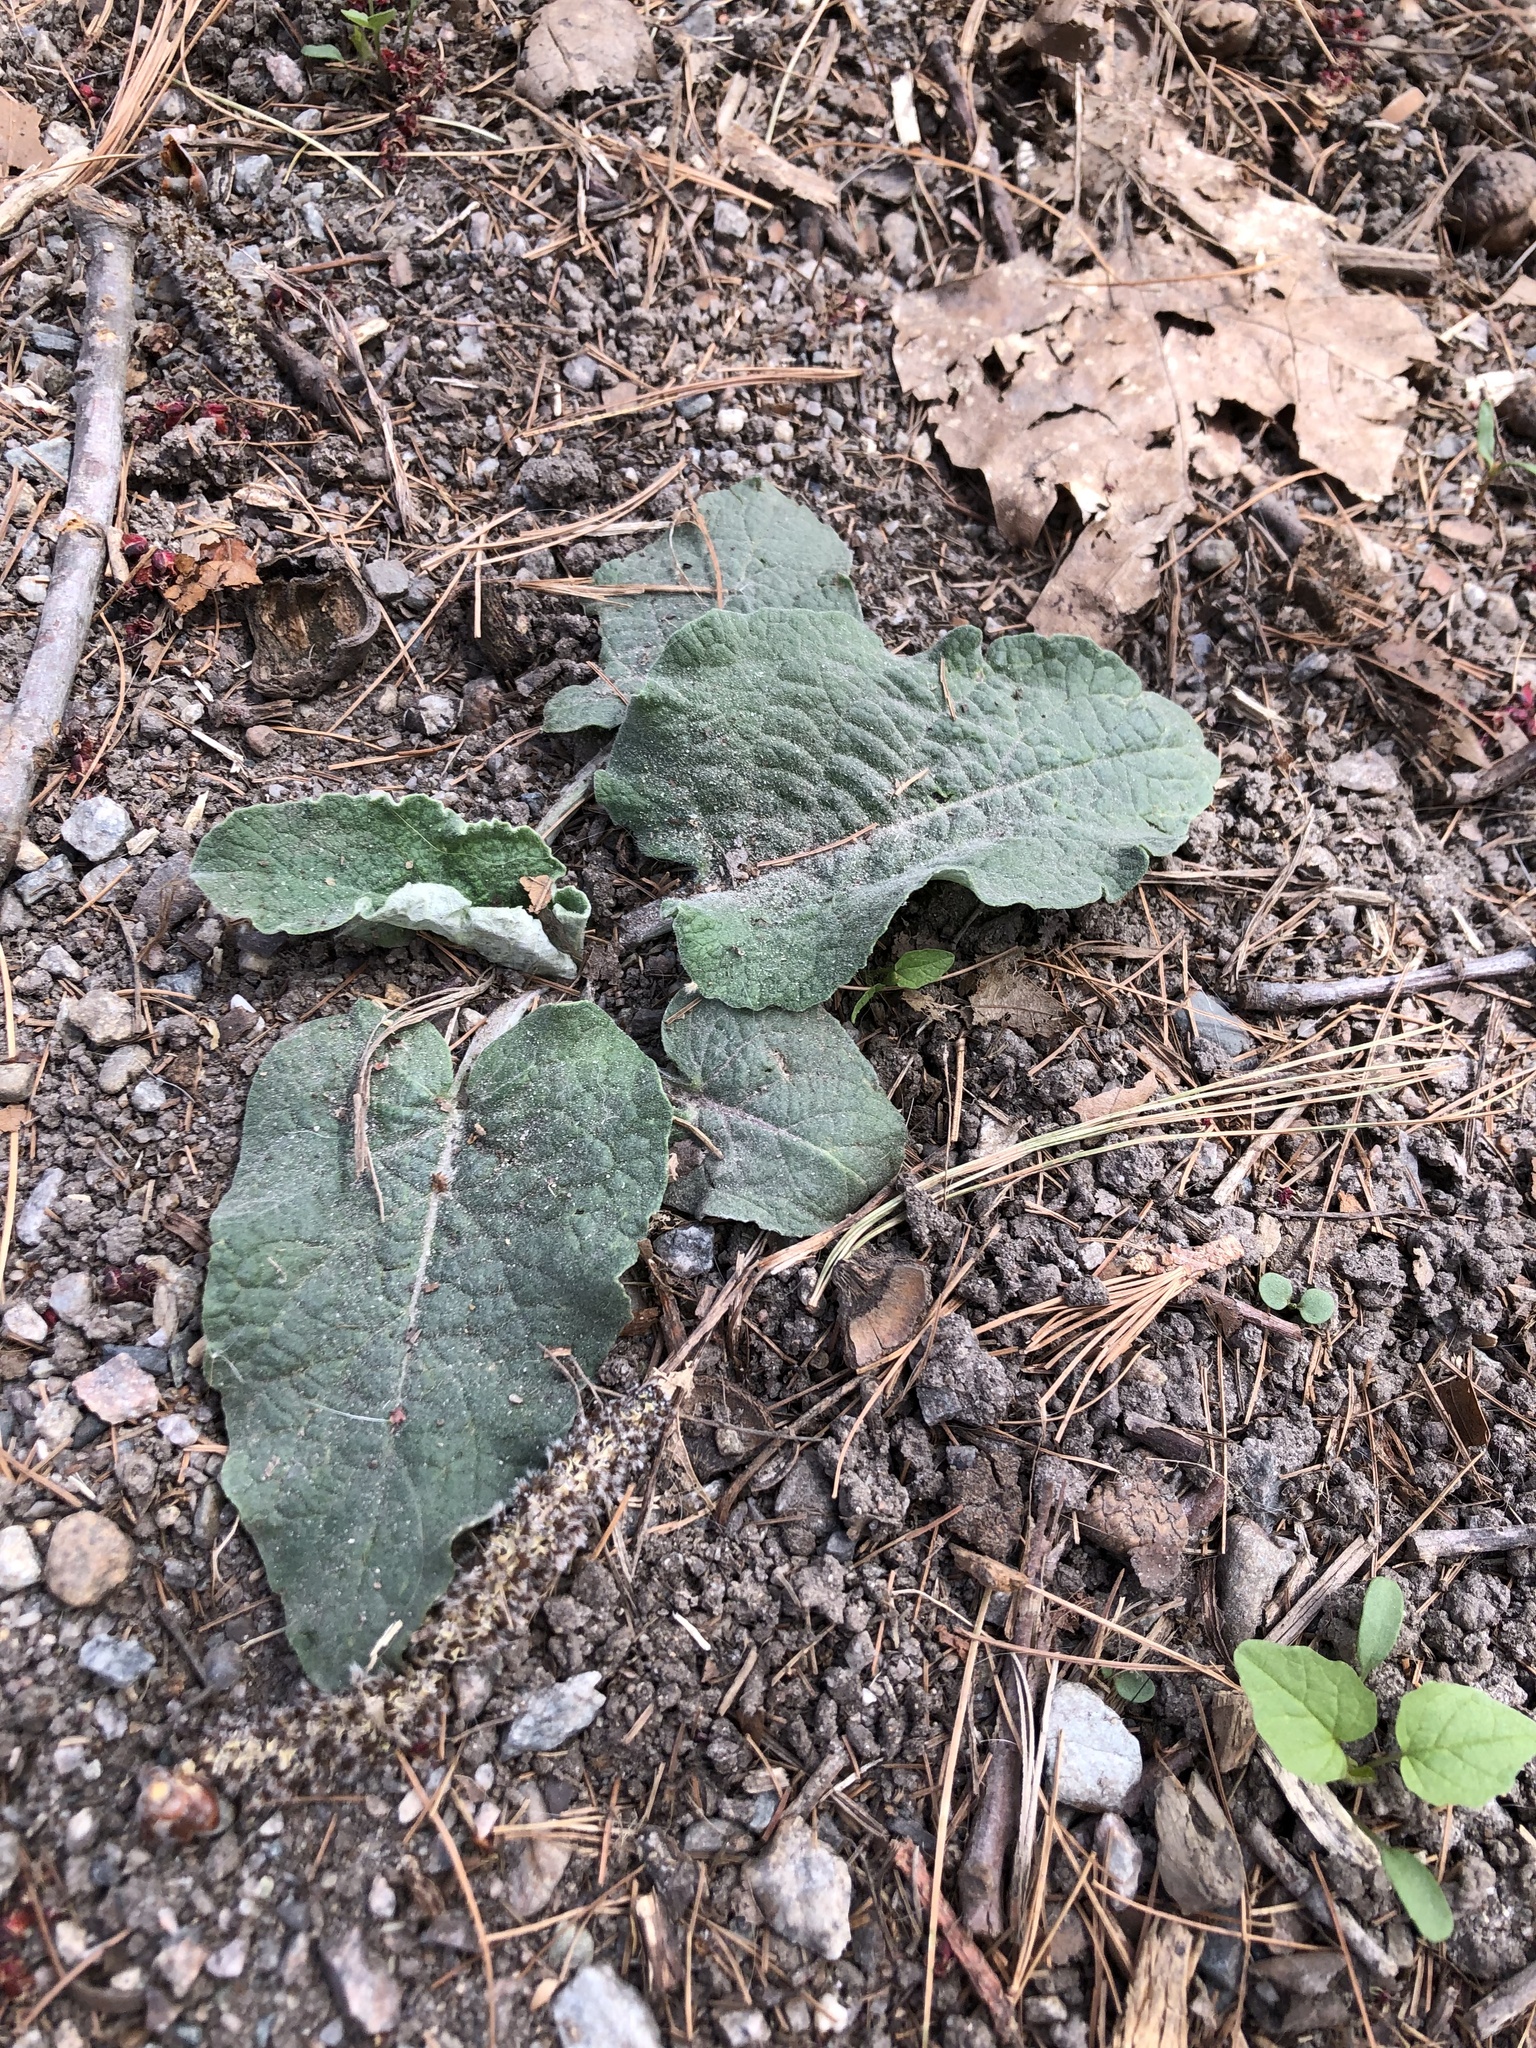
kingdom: Plantae
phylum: Tracheophyta
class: Magnoliopsida
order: Asterales
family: Asteraceae
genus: Arctium
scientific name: Arctium
